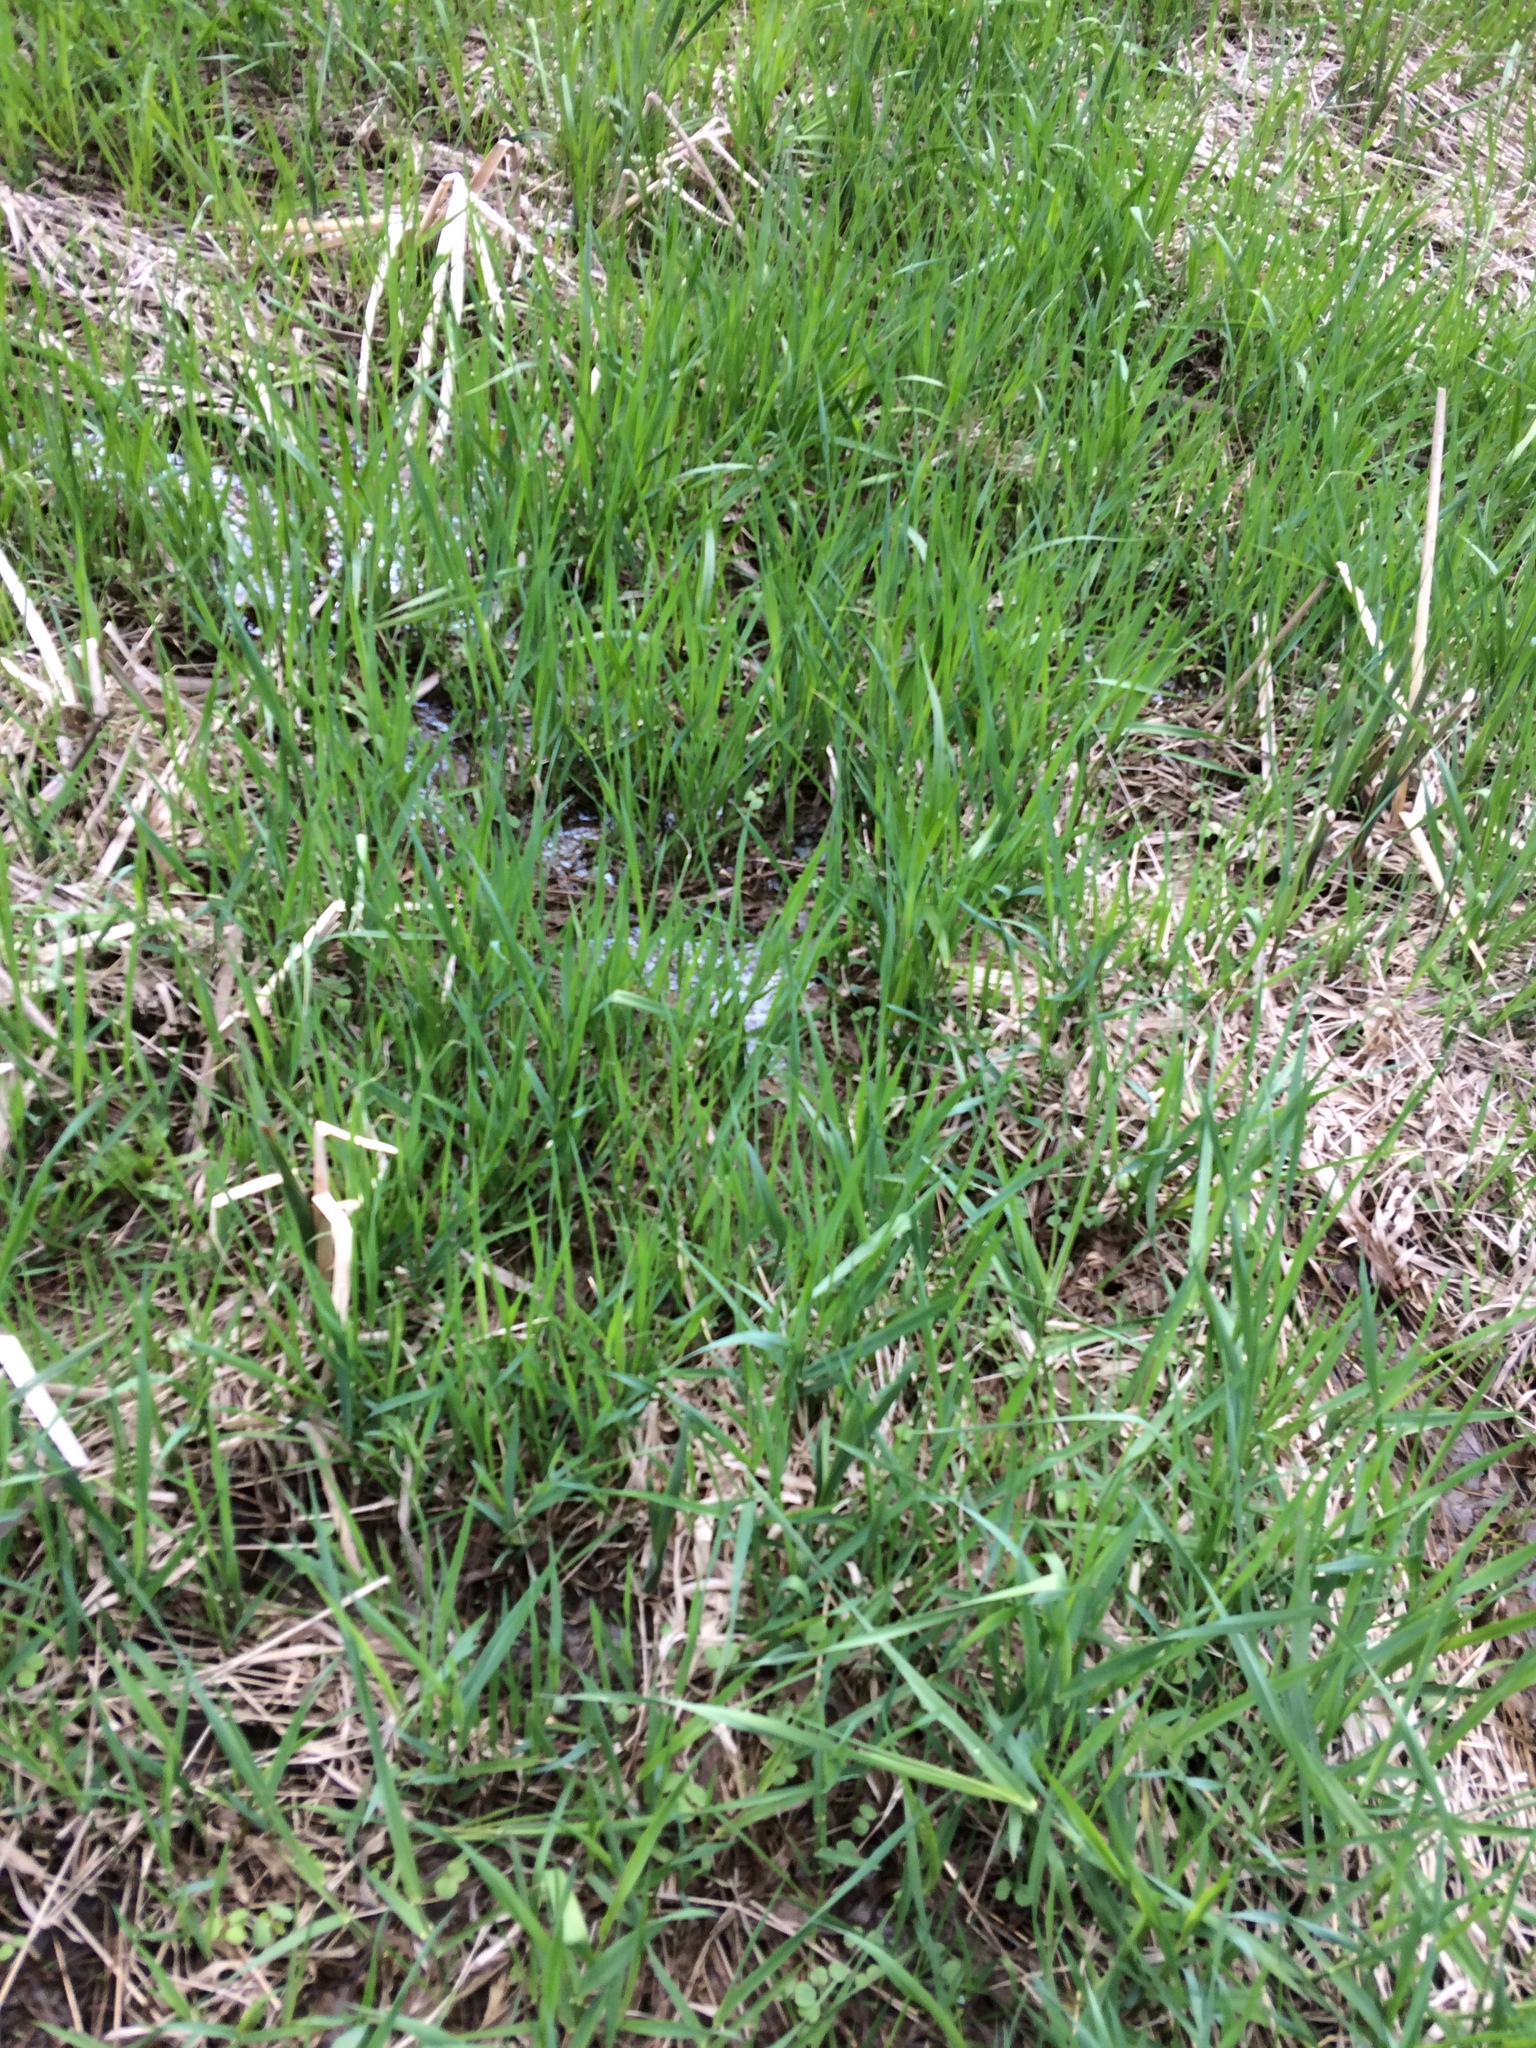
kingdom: Plantae
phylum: Tracheophyta
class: Liliopsida
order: Poales
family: Poaceae
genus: Phalaris
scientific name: Phalaris arundinacea
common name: Reed canary-grass
